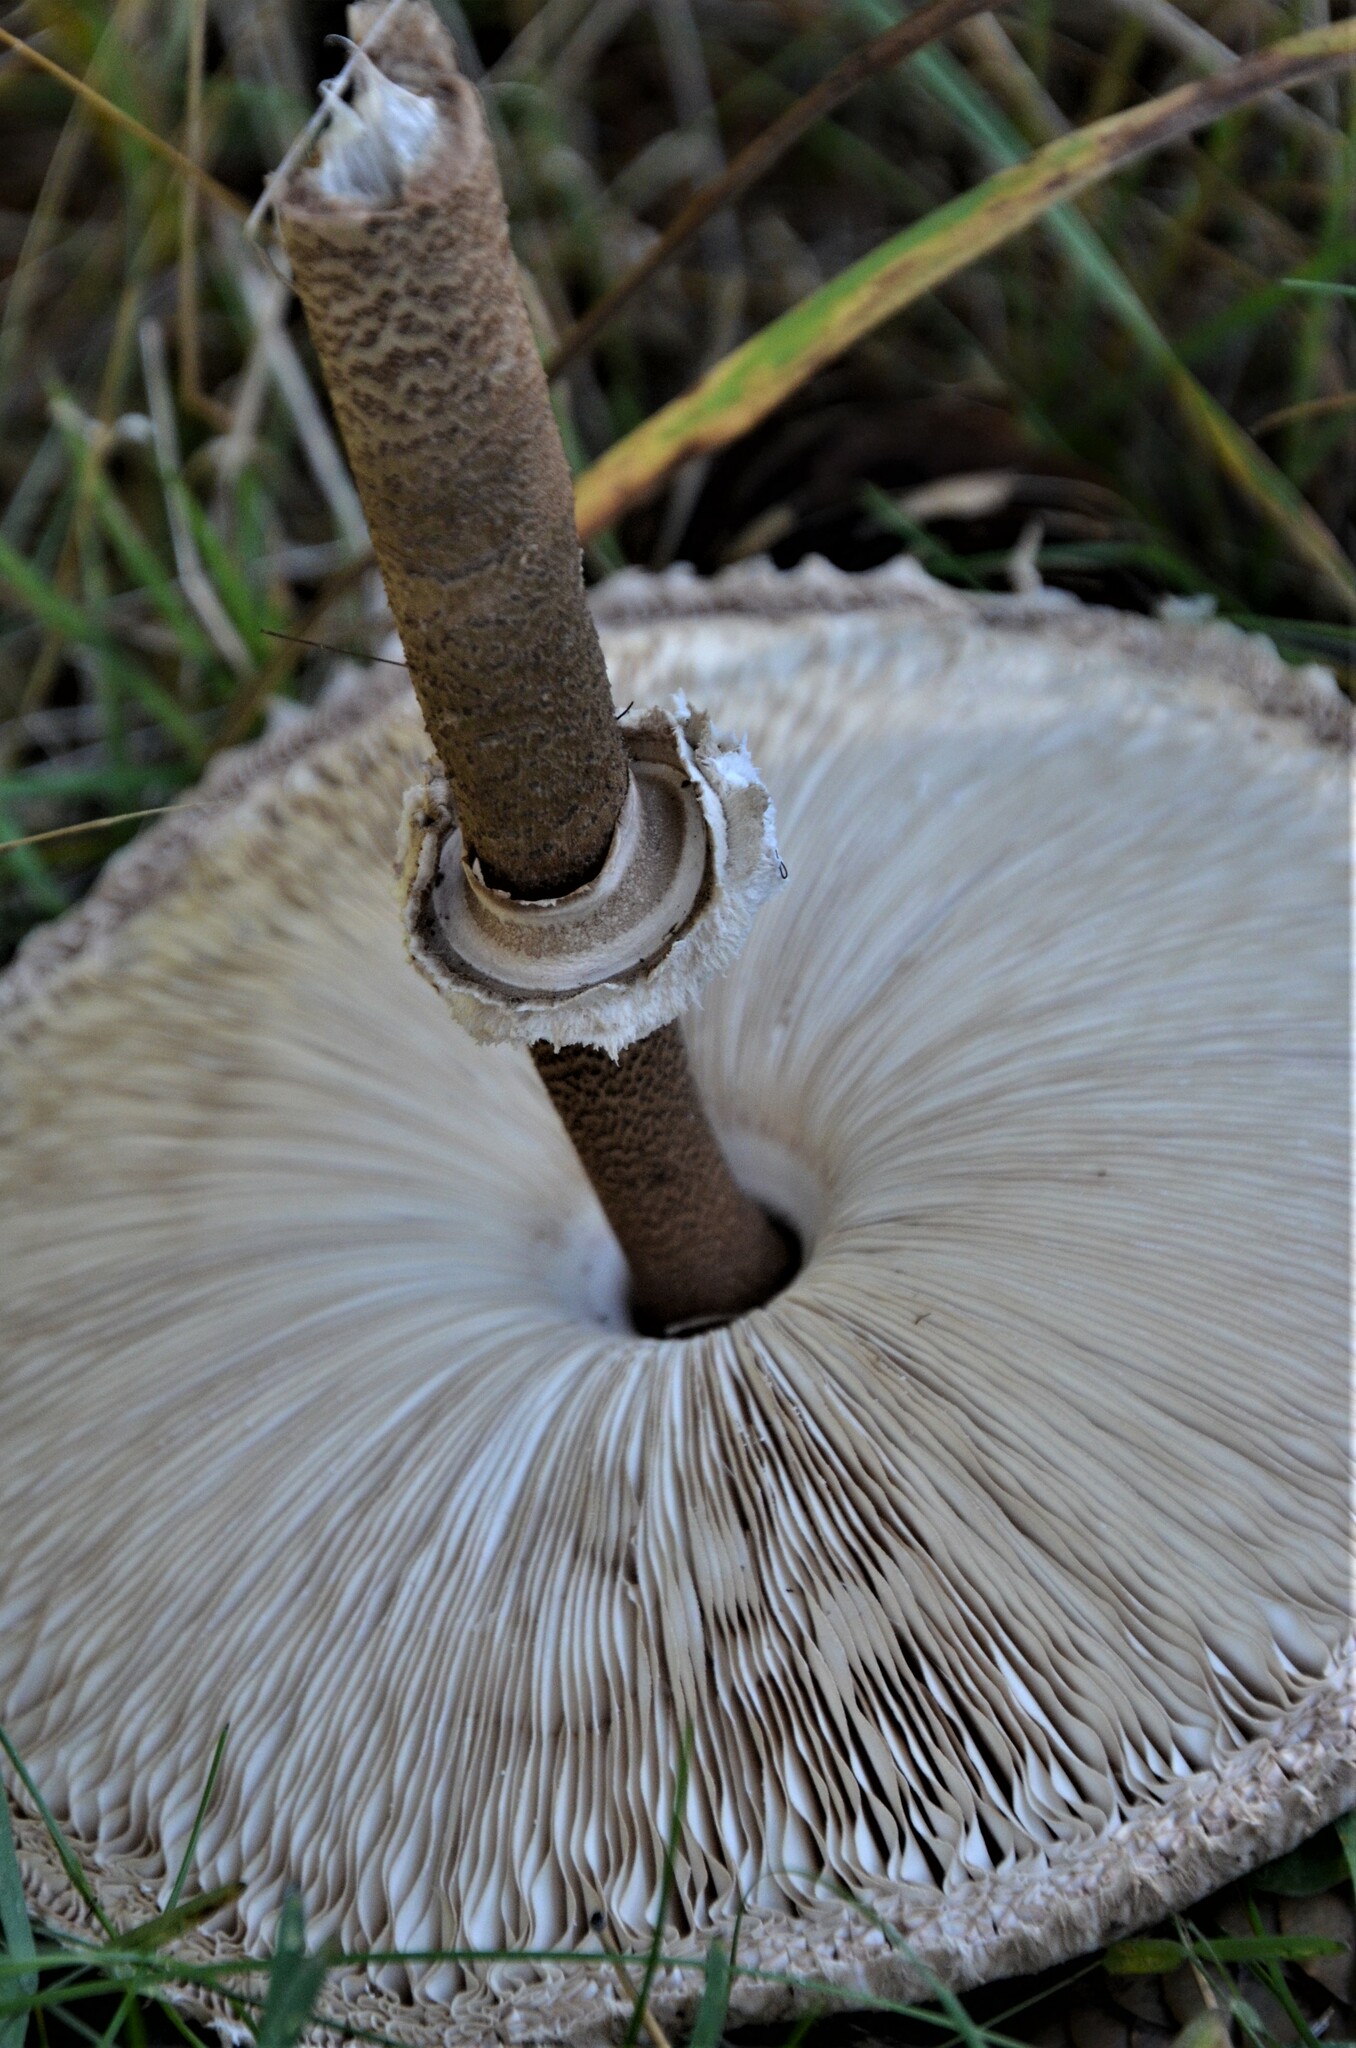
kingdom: Fungi
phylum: Basidiomycota
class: Agaricomycetes
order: Agaricales
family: Agaricaceae
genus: Macrolepiota
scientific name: Macrolepiota procera
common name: Parasol
